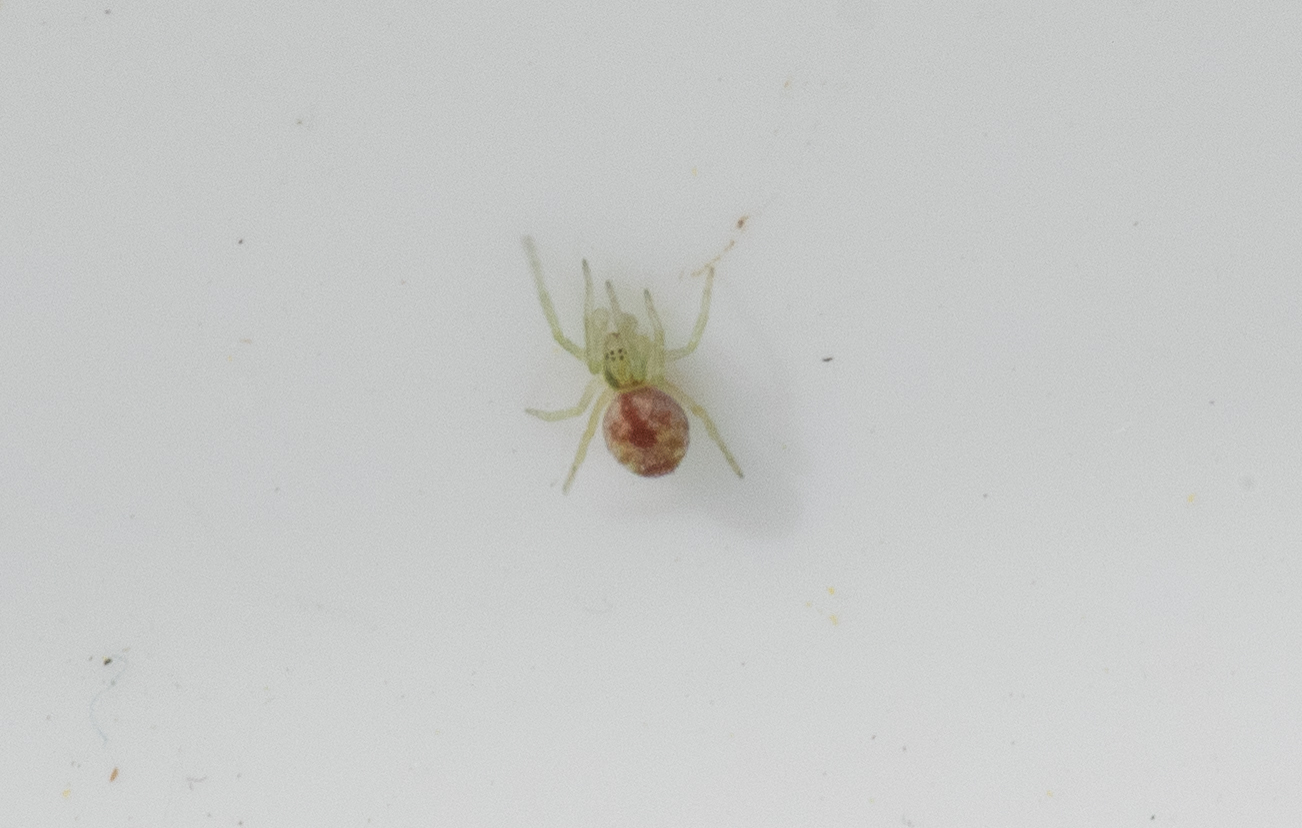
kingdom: Animalia
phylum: Arthropoda
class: Arachnida
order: Araneae
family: Dictynidae
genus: Nigma
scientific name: Nigma puella
